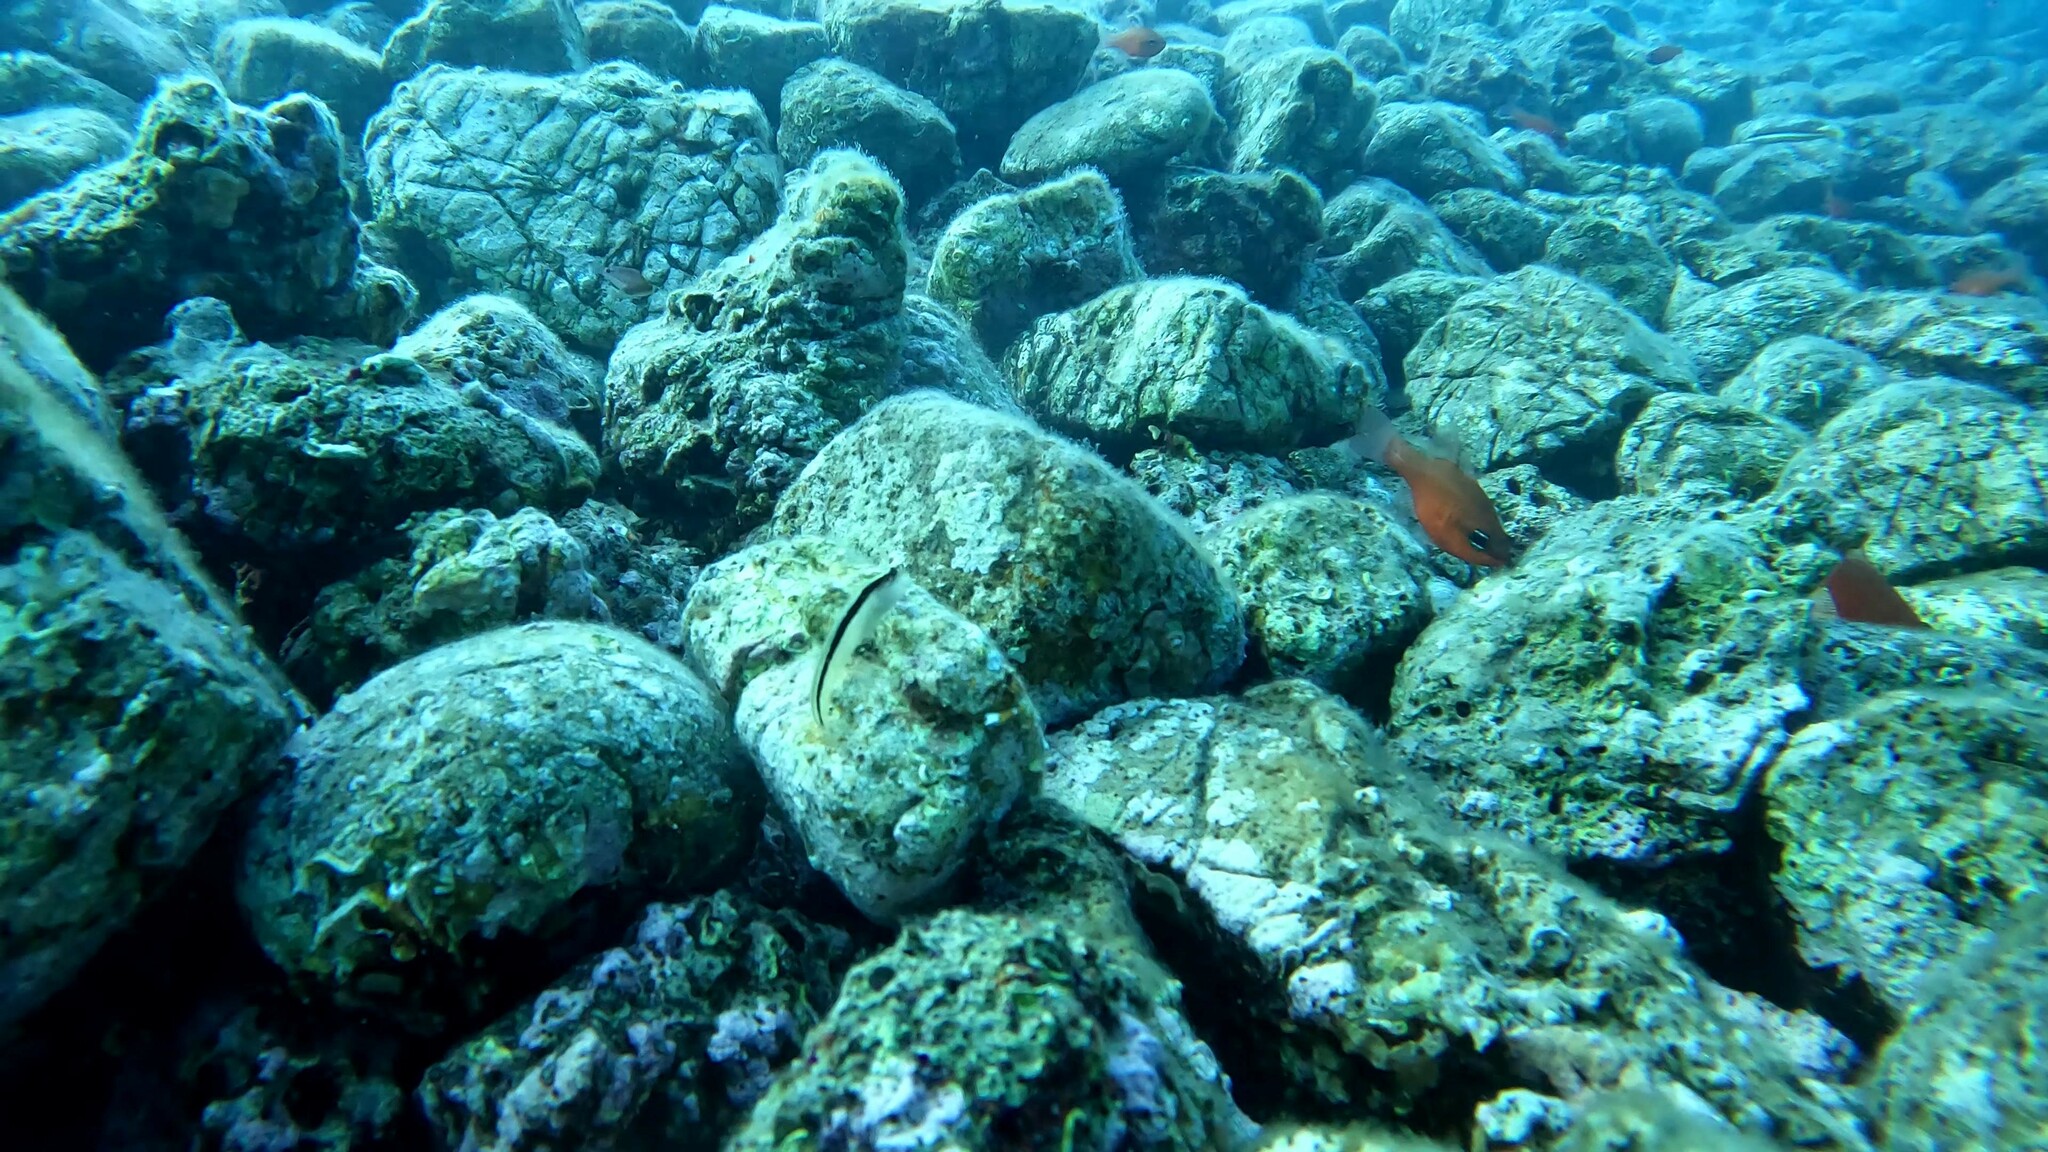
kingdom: Animalia
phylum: Chordata
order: Perciformes
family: Blenniidae
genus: Parablennius
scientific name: Parablennius rouxi
